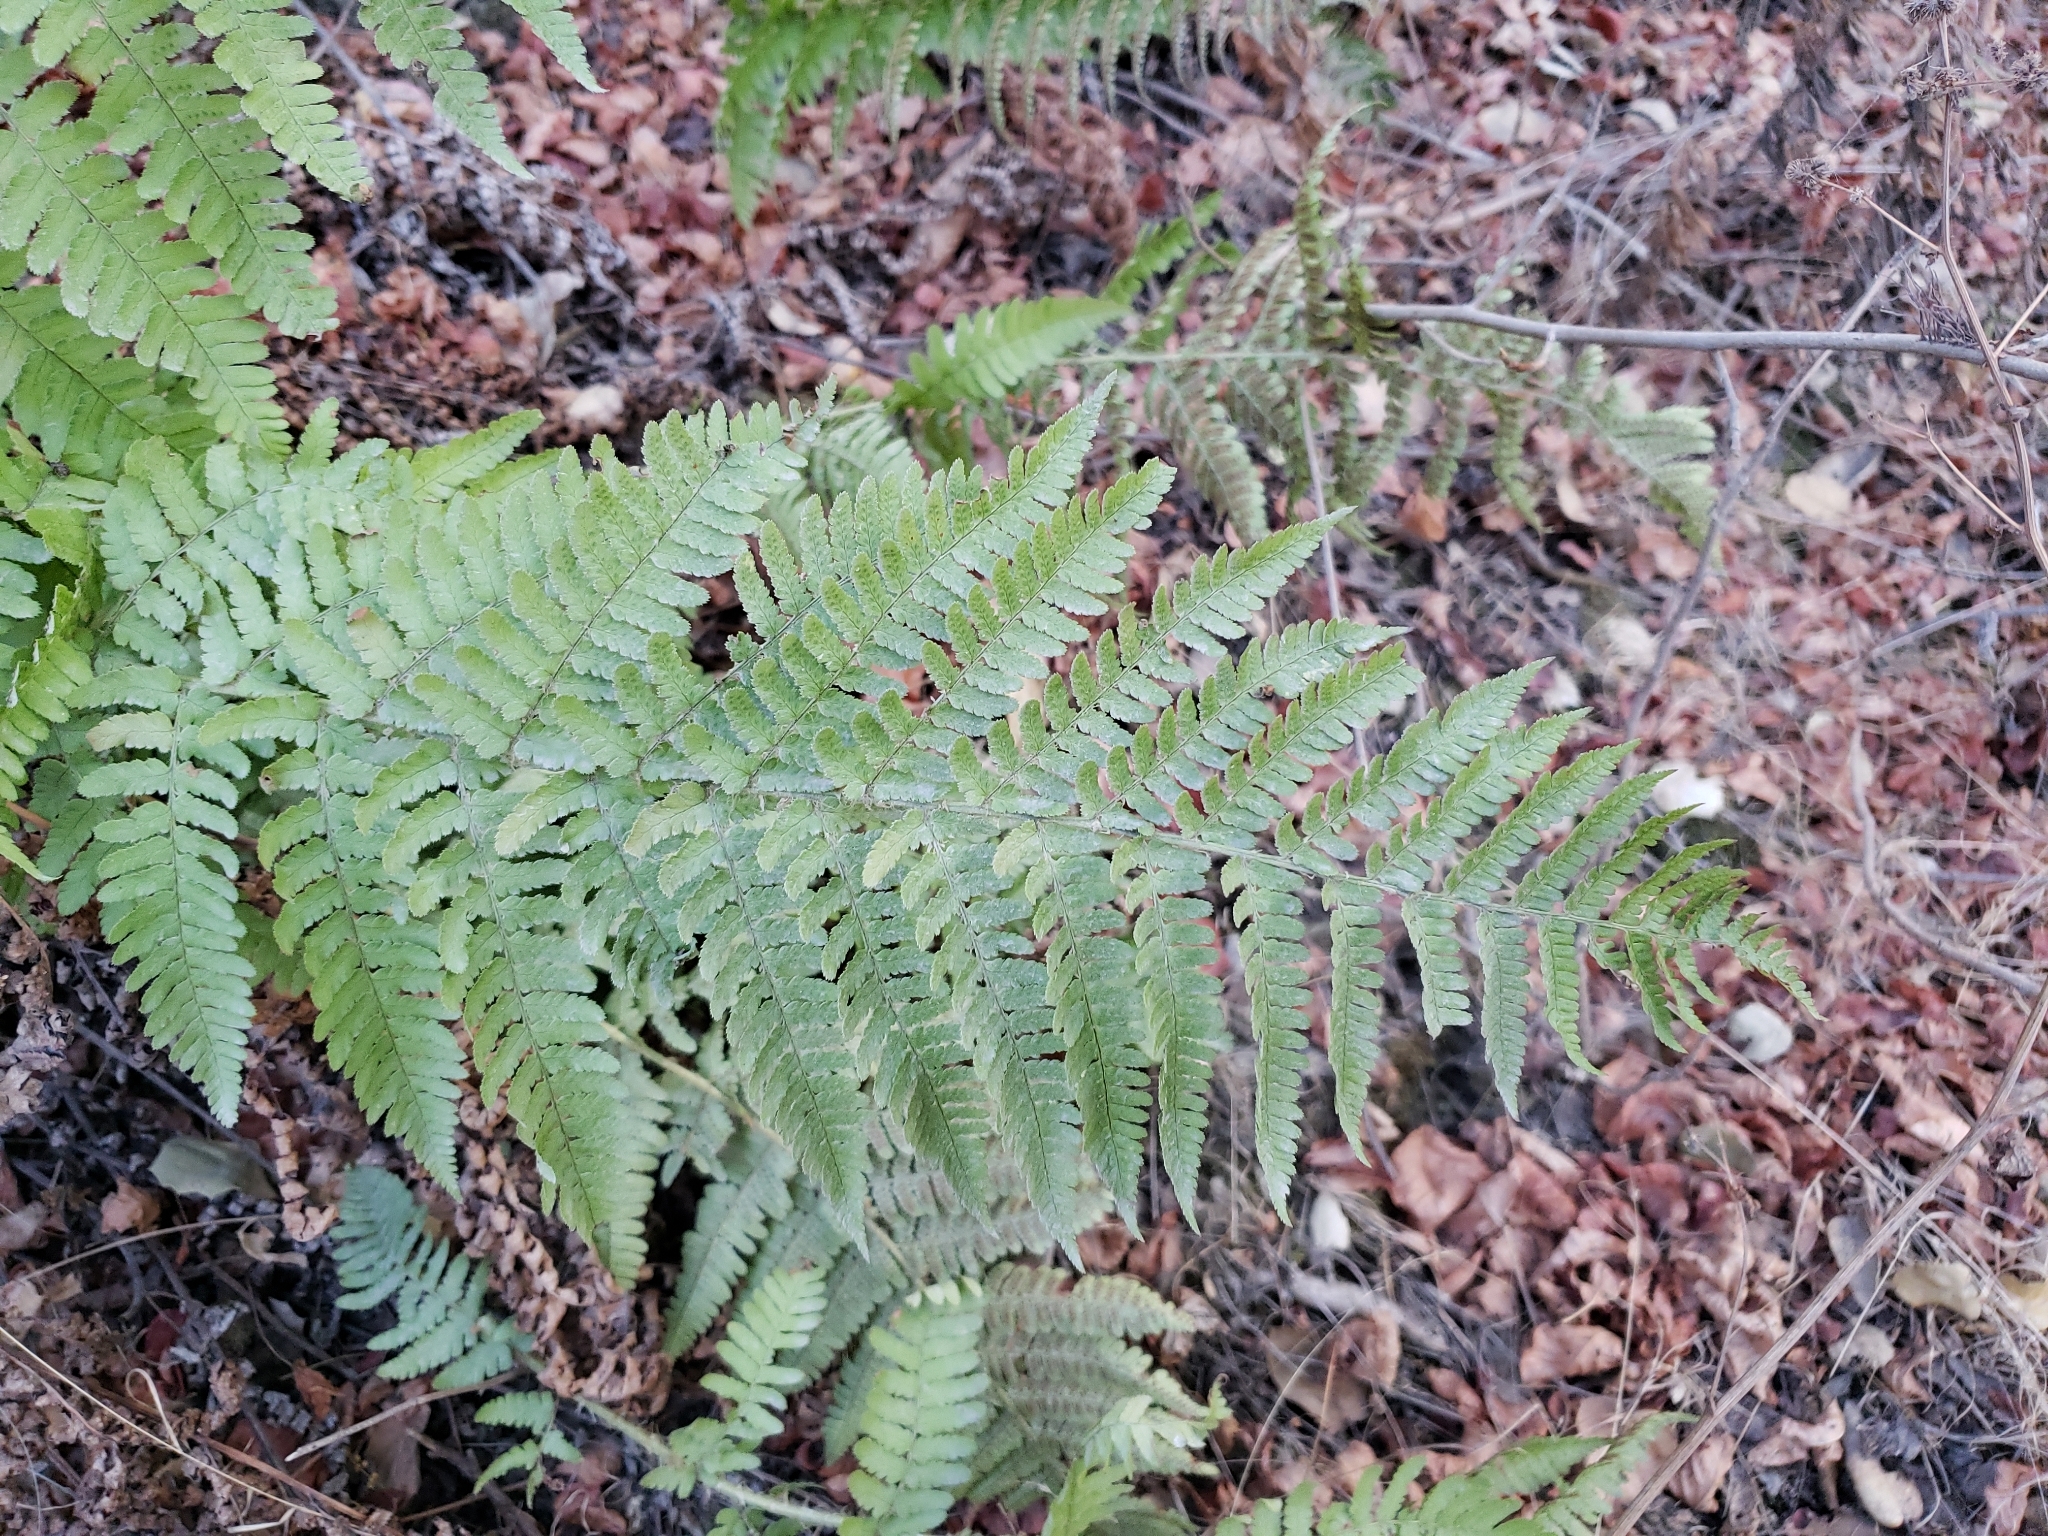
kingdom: Plantae
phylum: Tracheophyta
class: Polypodiopsida
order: Polypodiales
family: Dryopteridaceae
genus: Dryopteris
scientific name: Dryopteris arguta
